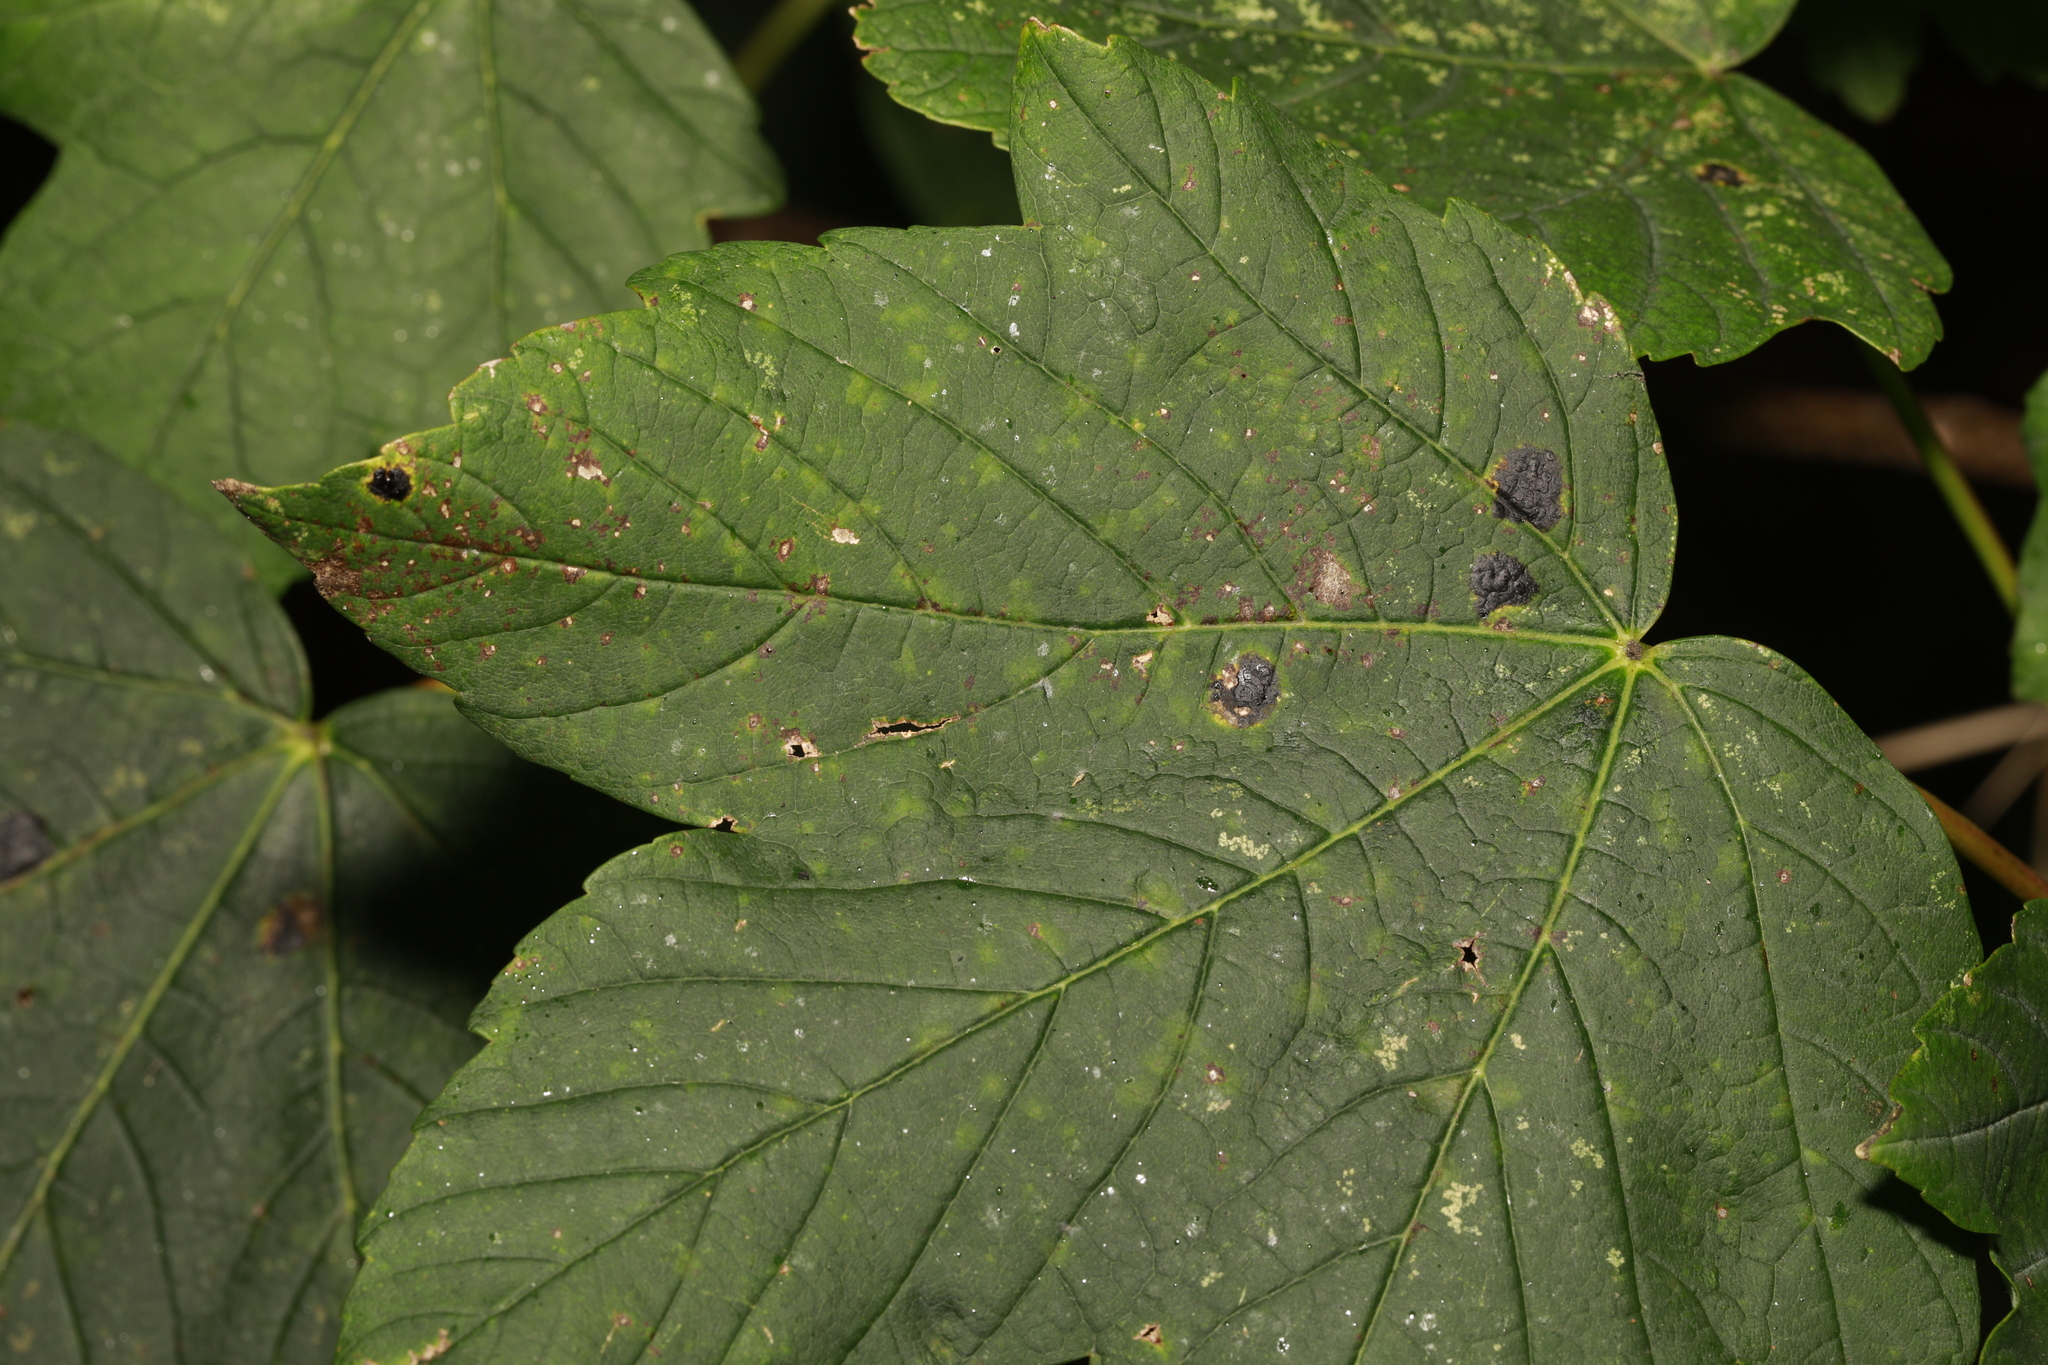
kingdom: Fungi
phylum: Ascomycota
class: Leotiomycetes
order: Rhytismatales
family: Rhytismataceae
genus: Rhytisma
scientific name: Rhytisma acerinum
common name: European tar spot
